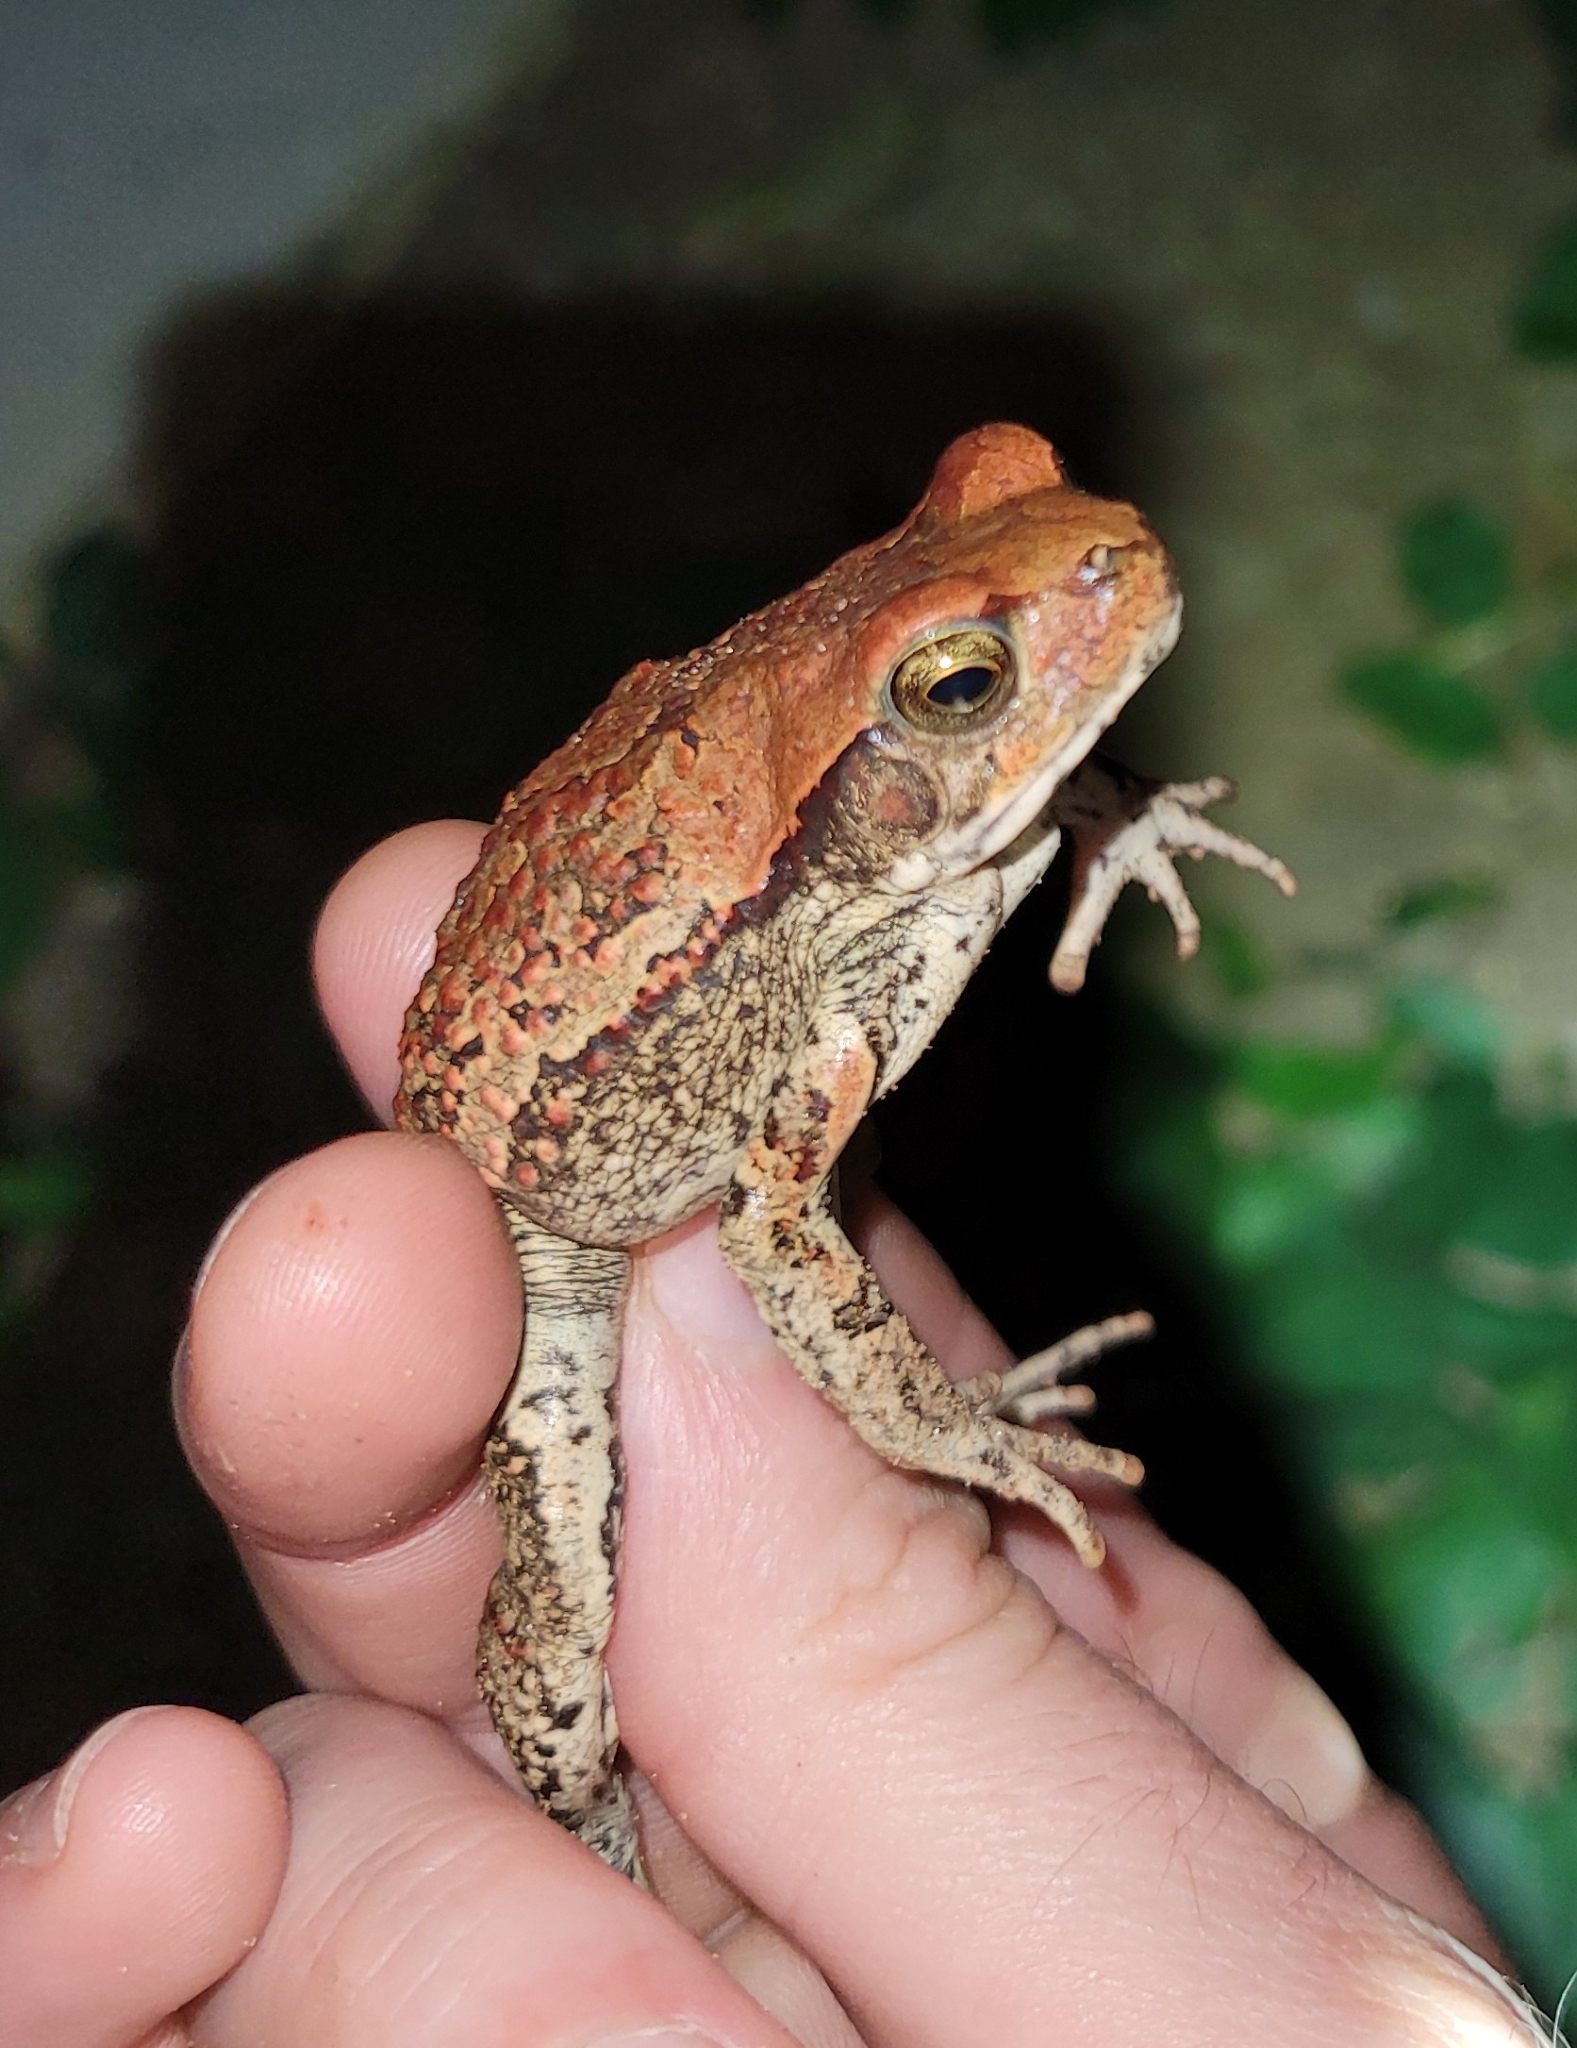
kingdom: Animalia
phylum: Chordata
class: Amphibia
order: Anura
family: Bufonidae
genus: Schismaderma
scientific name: Schismaderma carens
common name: African split-skin toad
